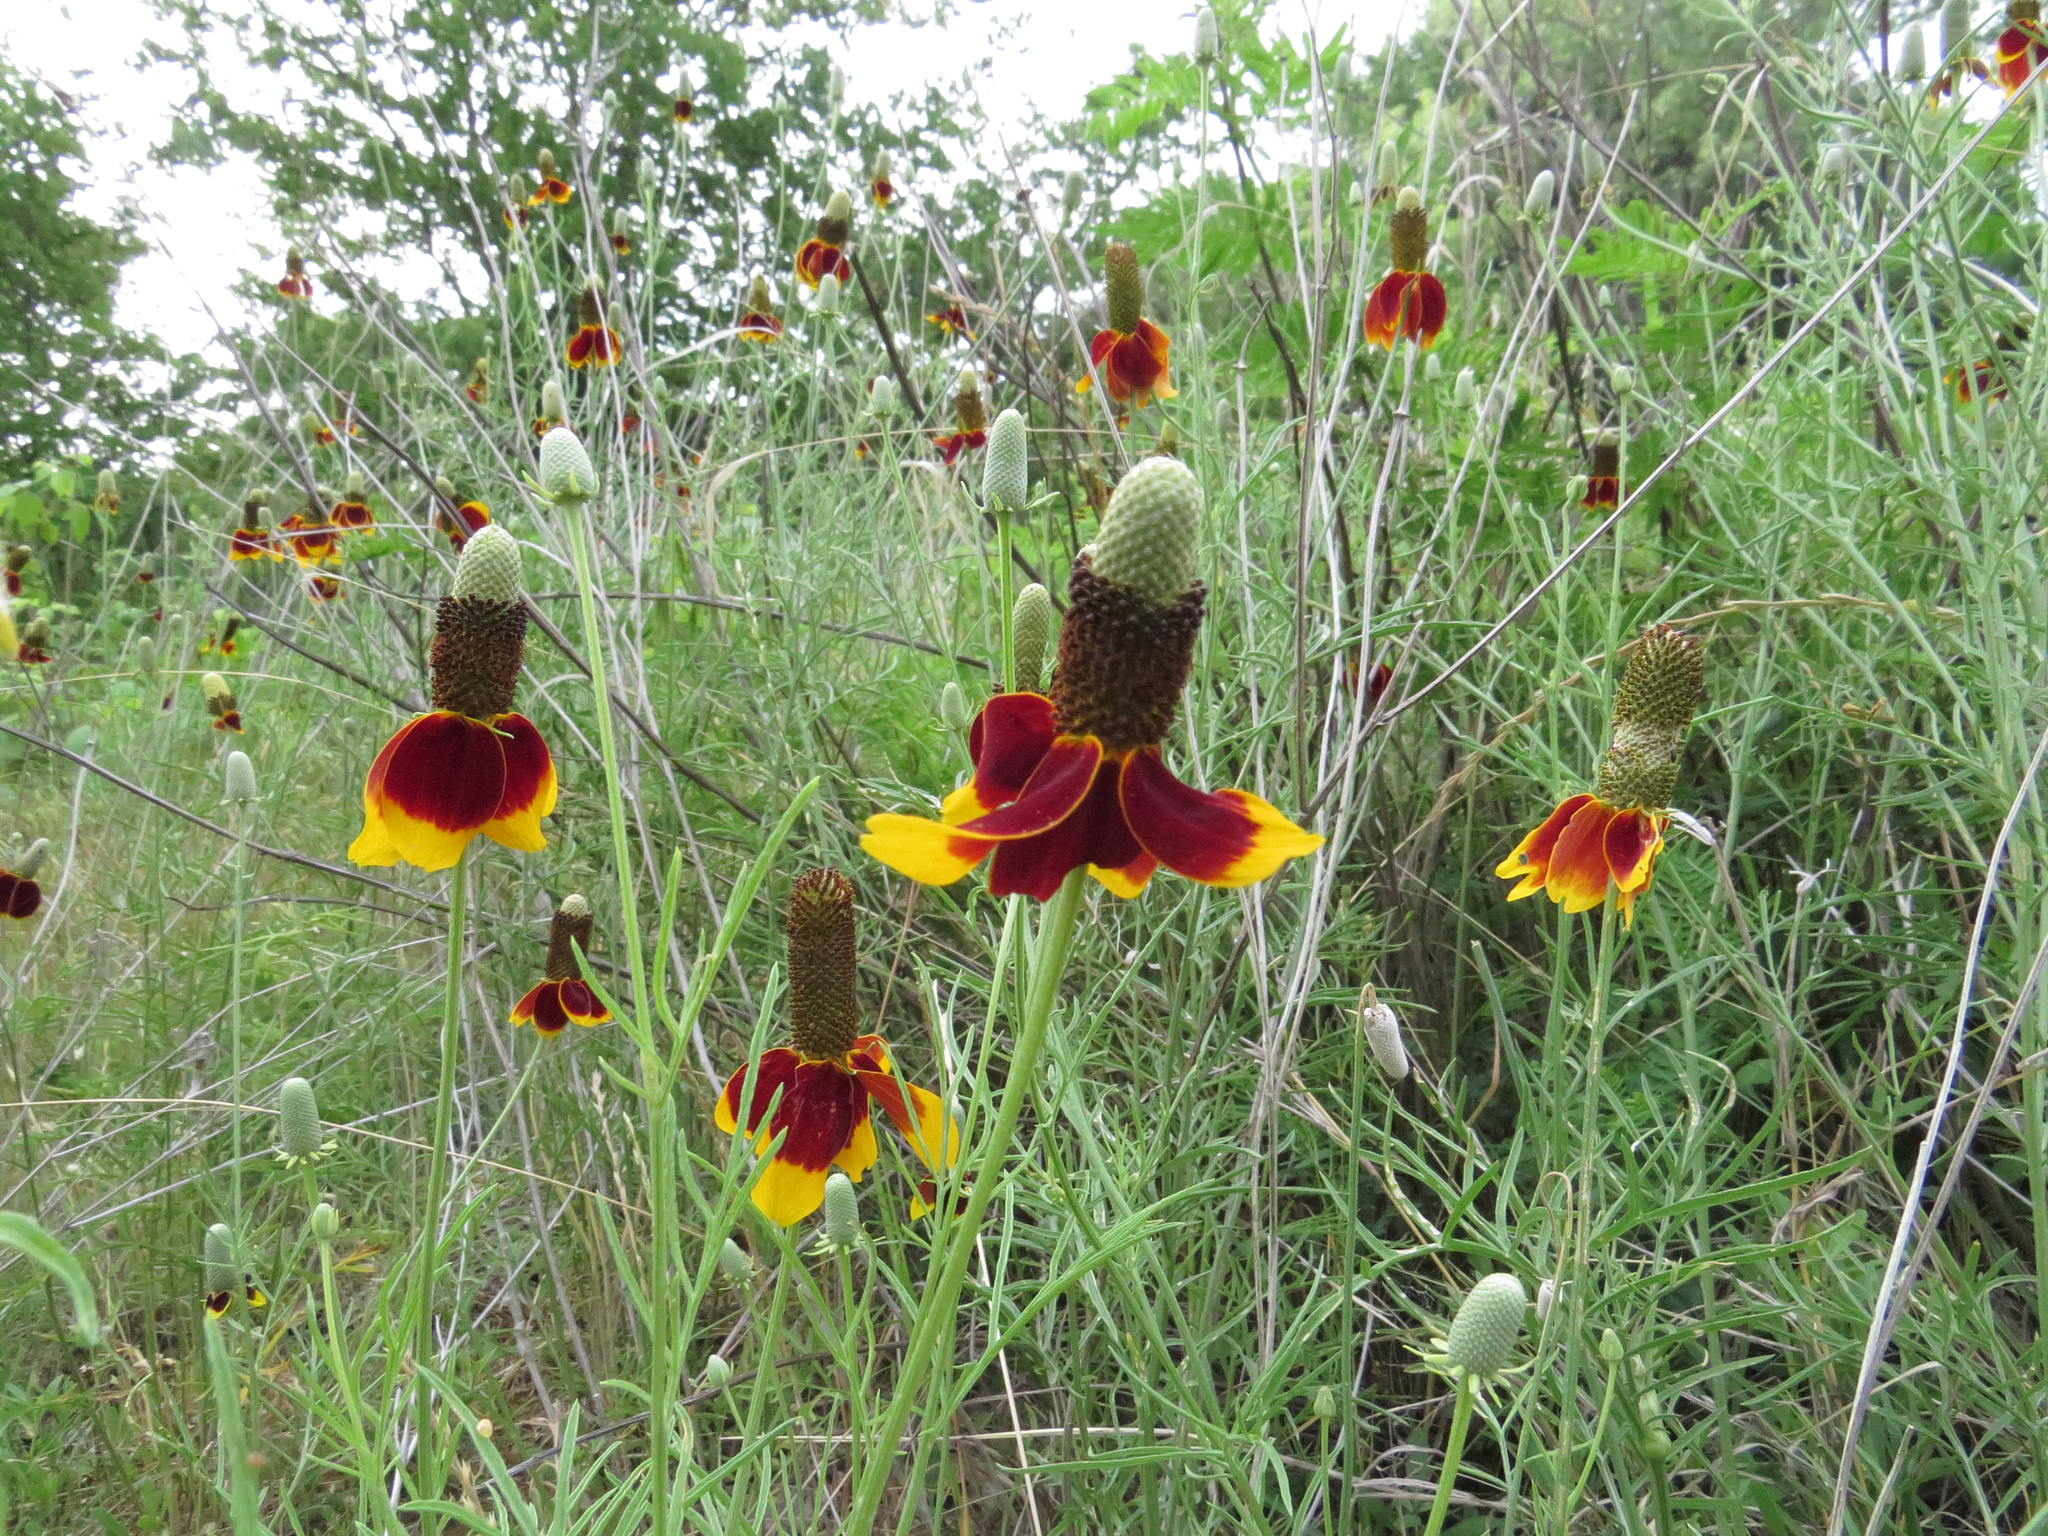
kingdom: Plantae
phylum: Tracheophyta
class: Magnoliopsida
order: Asterales
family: Asteraceae
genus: Ratibida
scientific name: Ratibida columnifera
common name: Prairie coneflower
